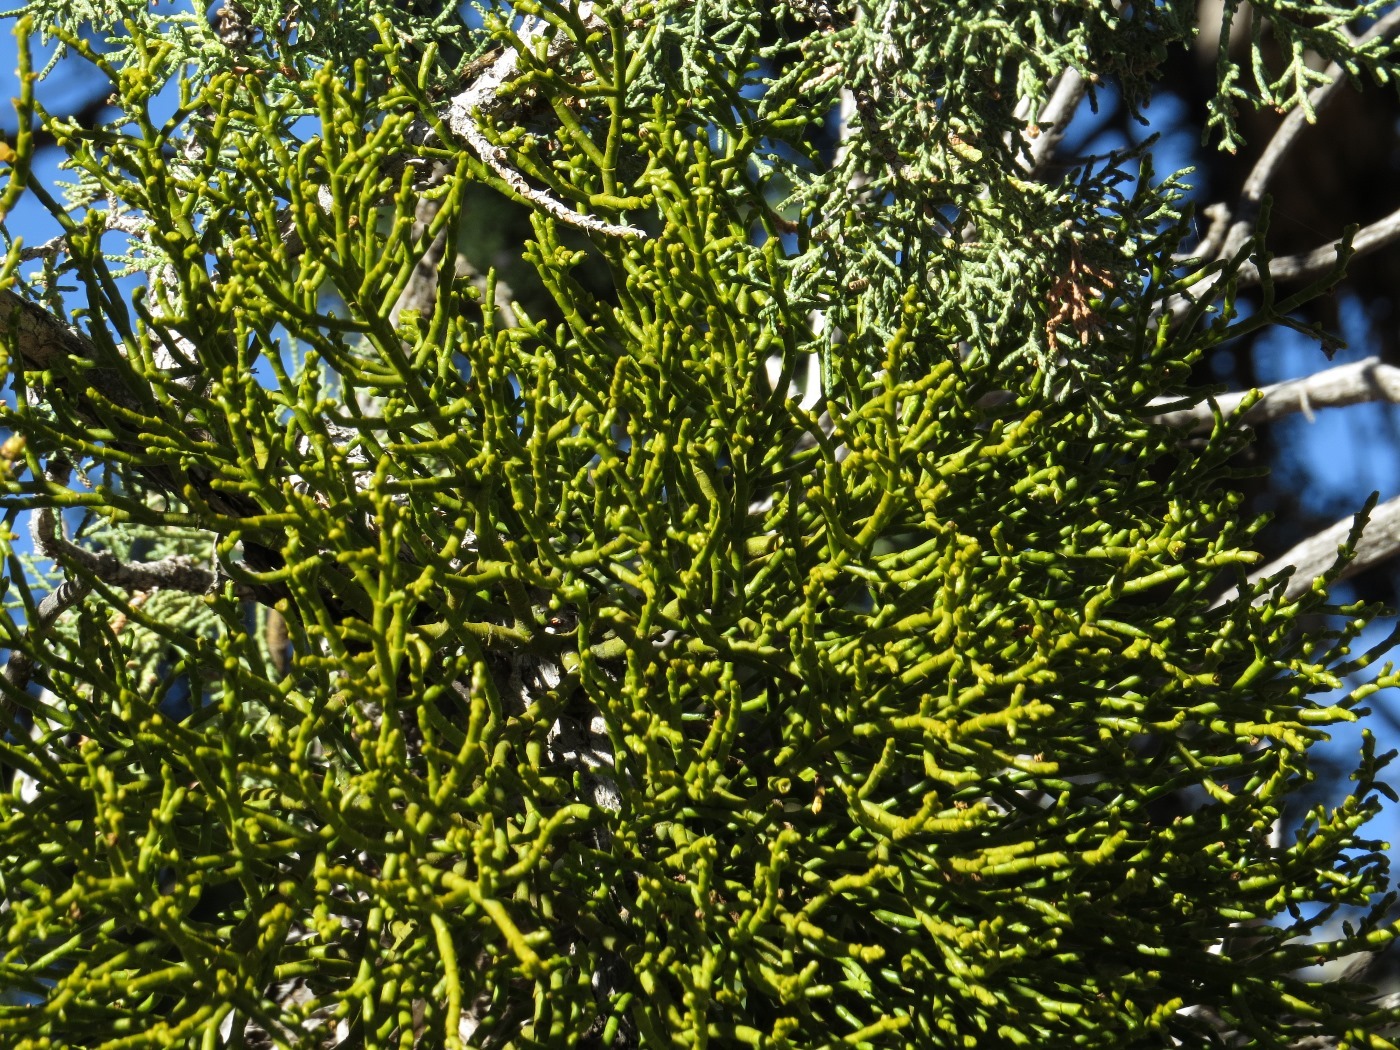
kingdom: Plantae
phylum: Tracheophyta
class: Magnoliopsida
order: Santalales
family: Viscaceae
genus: Phoradendron
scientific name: Phoradendron juniperinum
